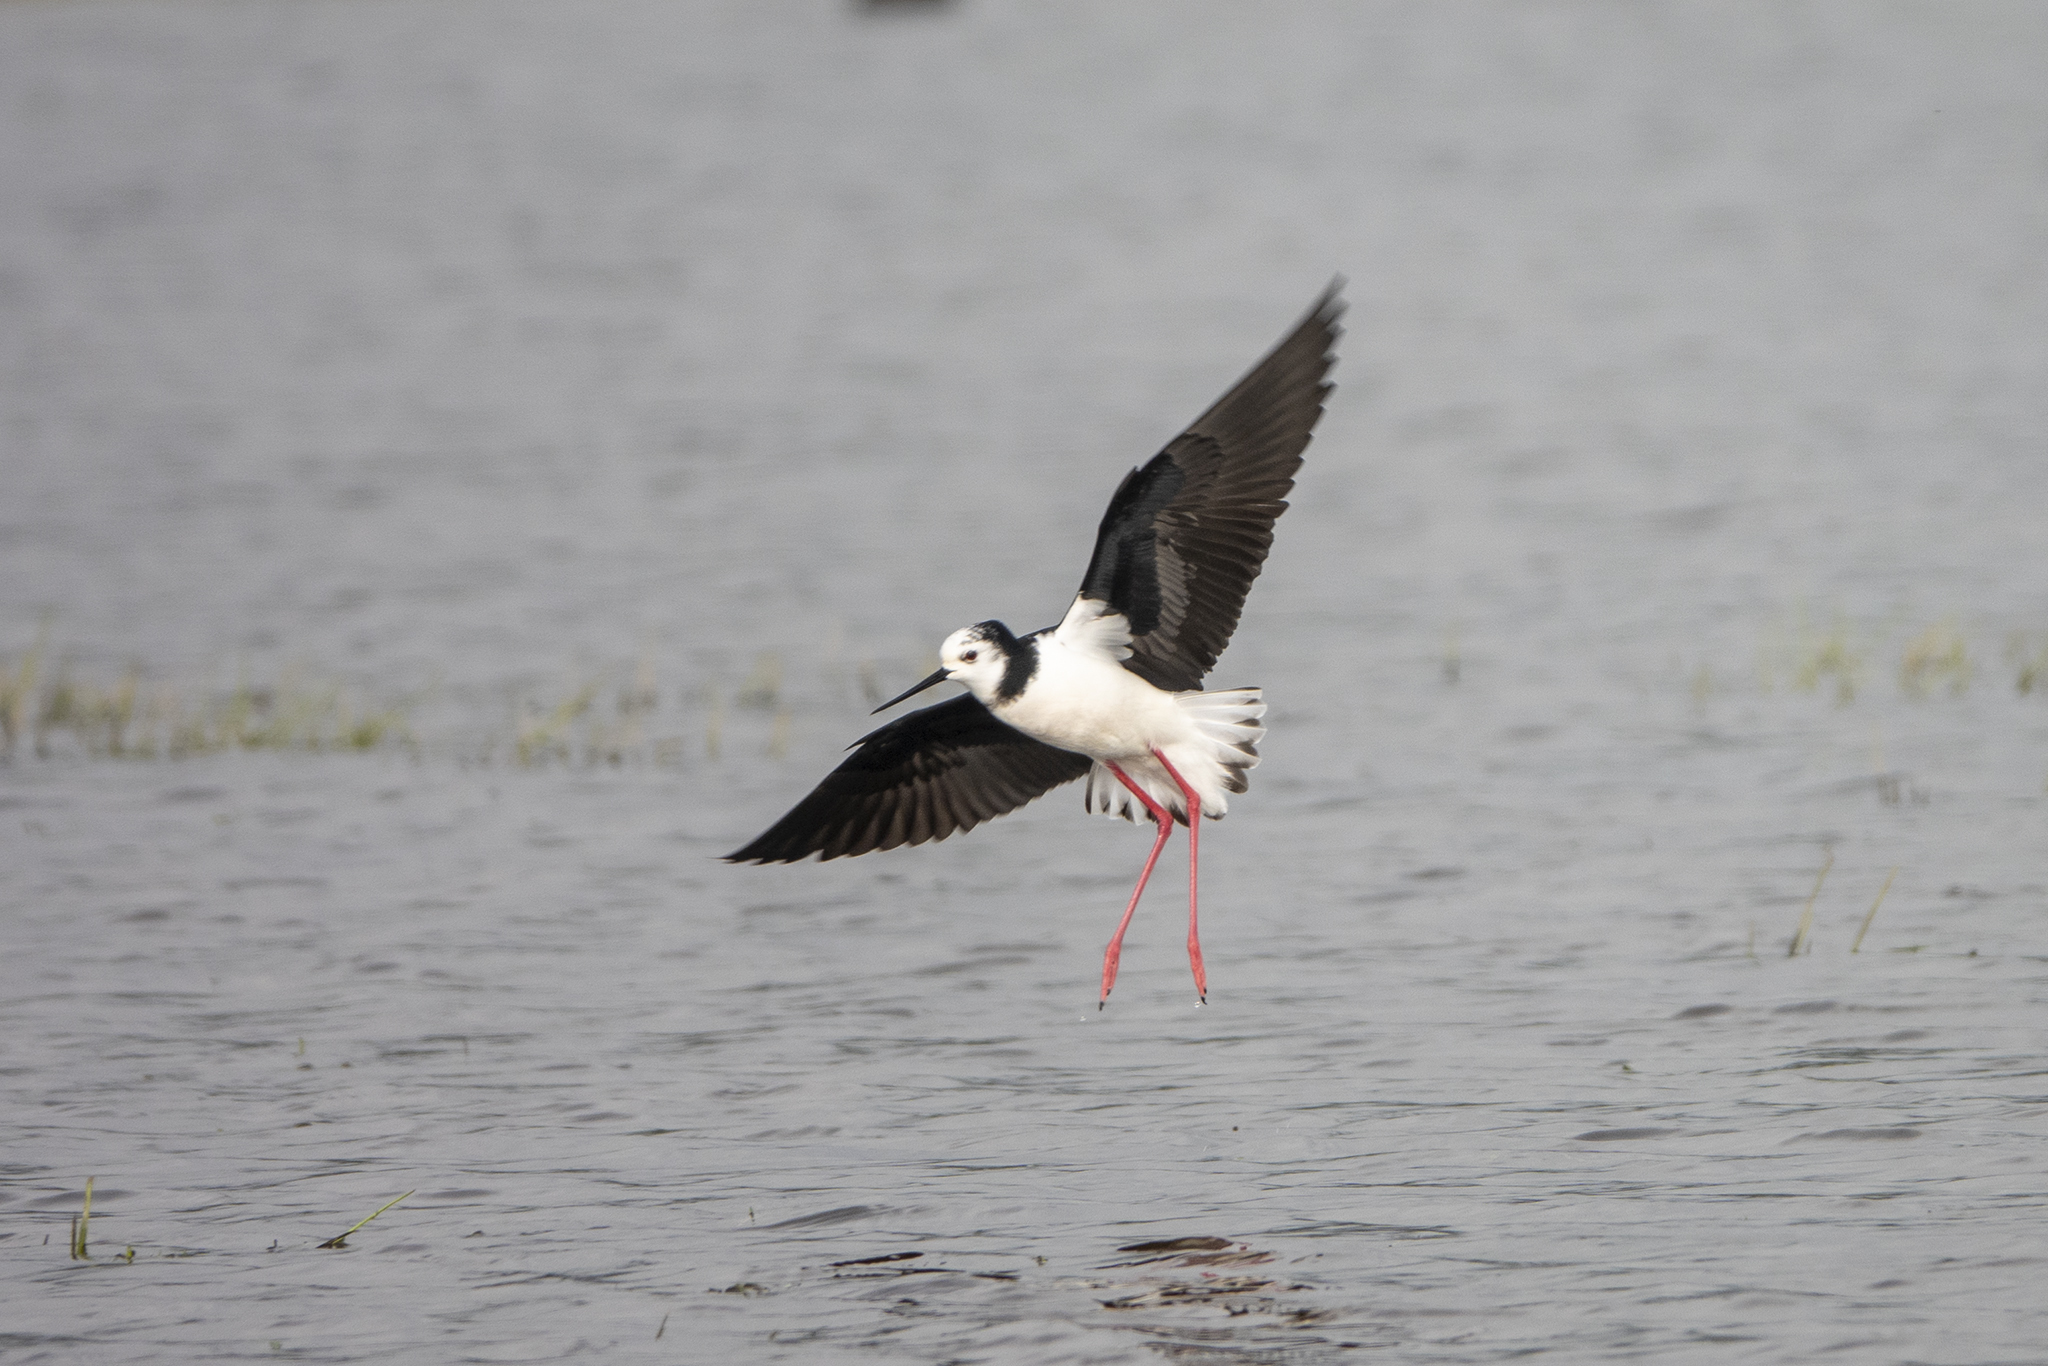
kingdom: Animalia
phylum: Chordata
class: Aves
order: Charadriiformes
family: Recurvirostridae
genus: Himantopus
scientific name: Himantopus leucocephalus
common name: White-headed stilt
